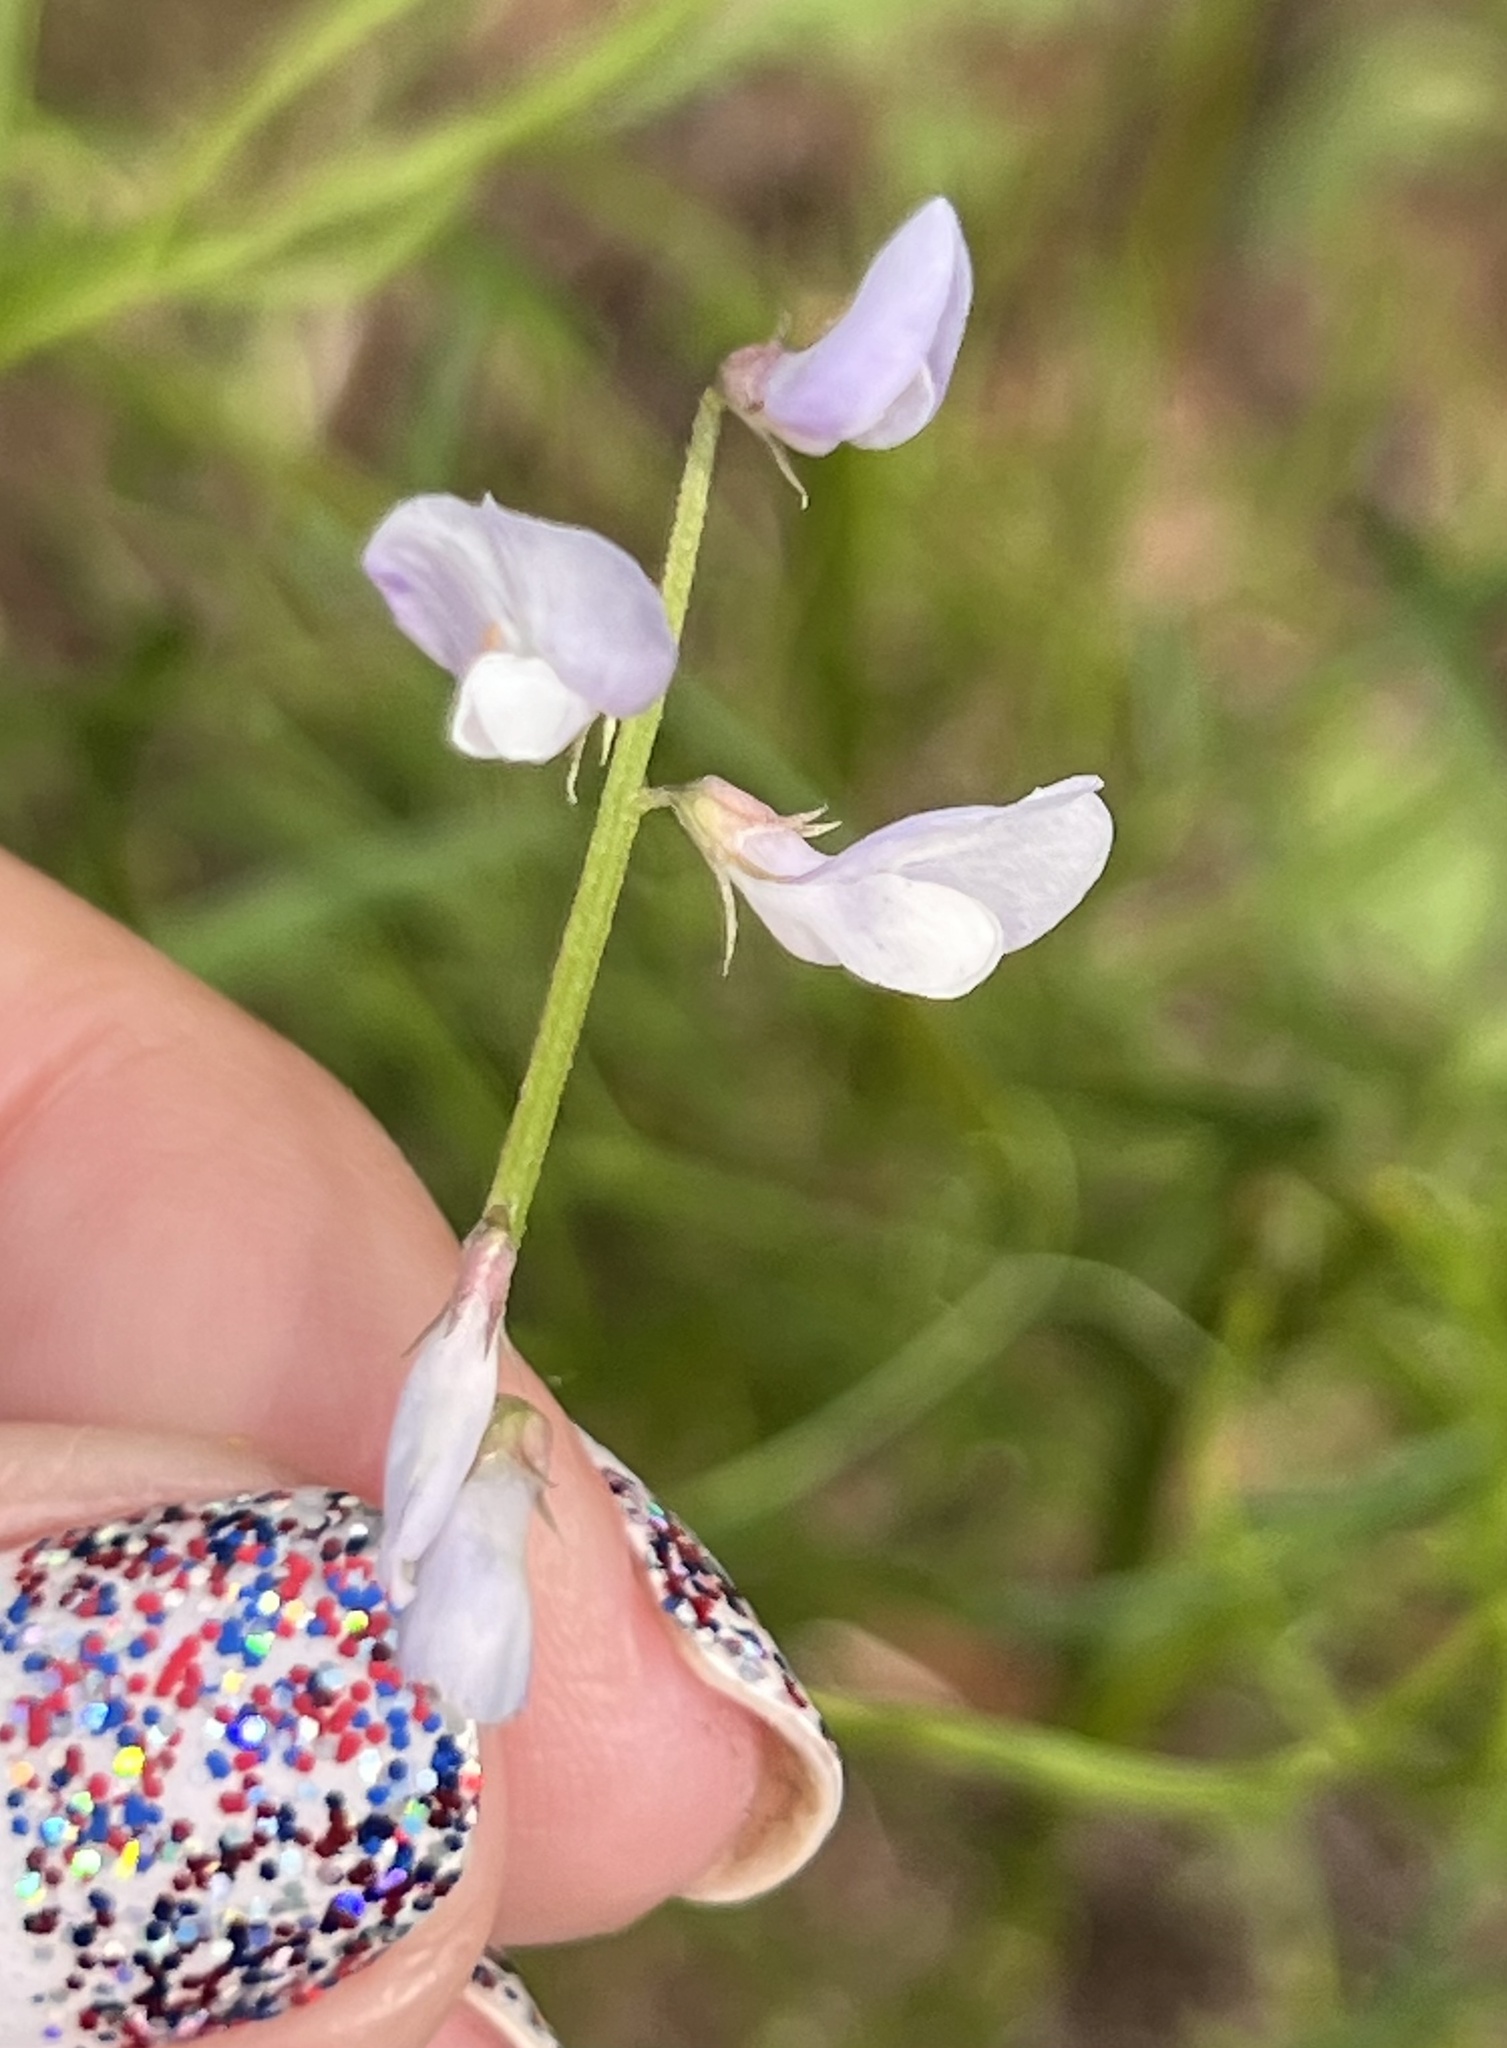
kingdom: Plantae
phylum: Tracheophyta
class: Magnoliopsida
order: Fabales
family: Fabaceae
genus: Vicia
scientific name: Vicia ludoviciana
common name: Louisiana vetch
